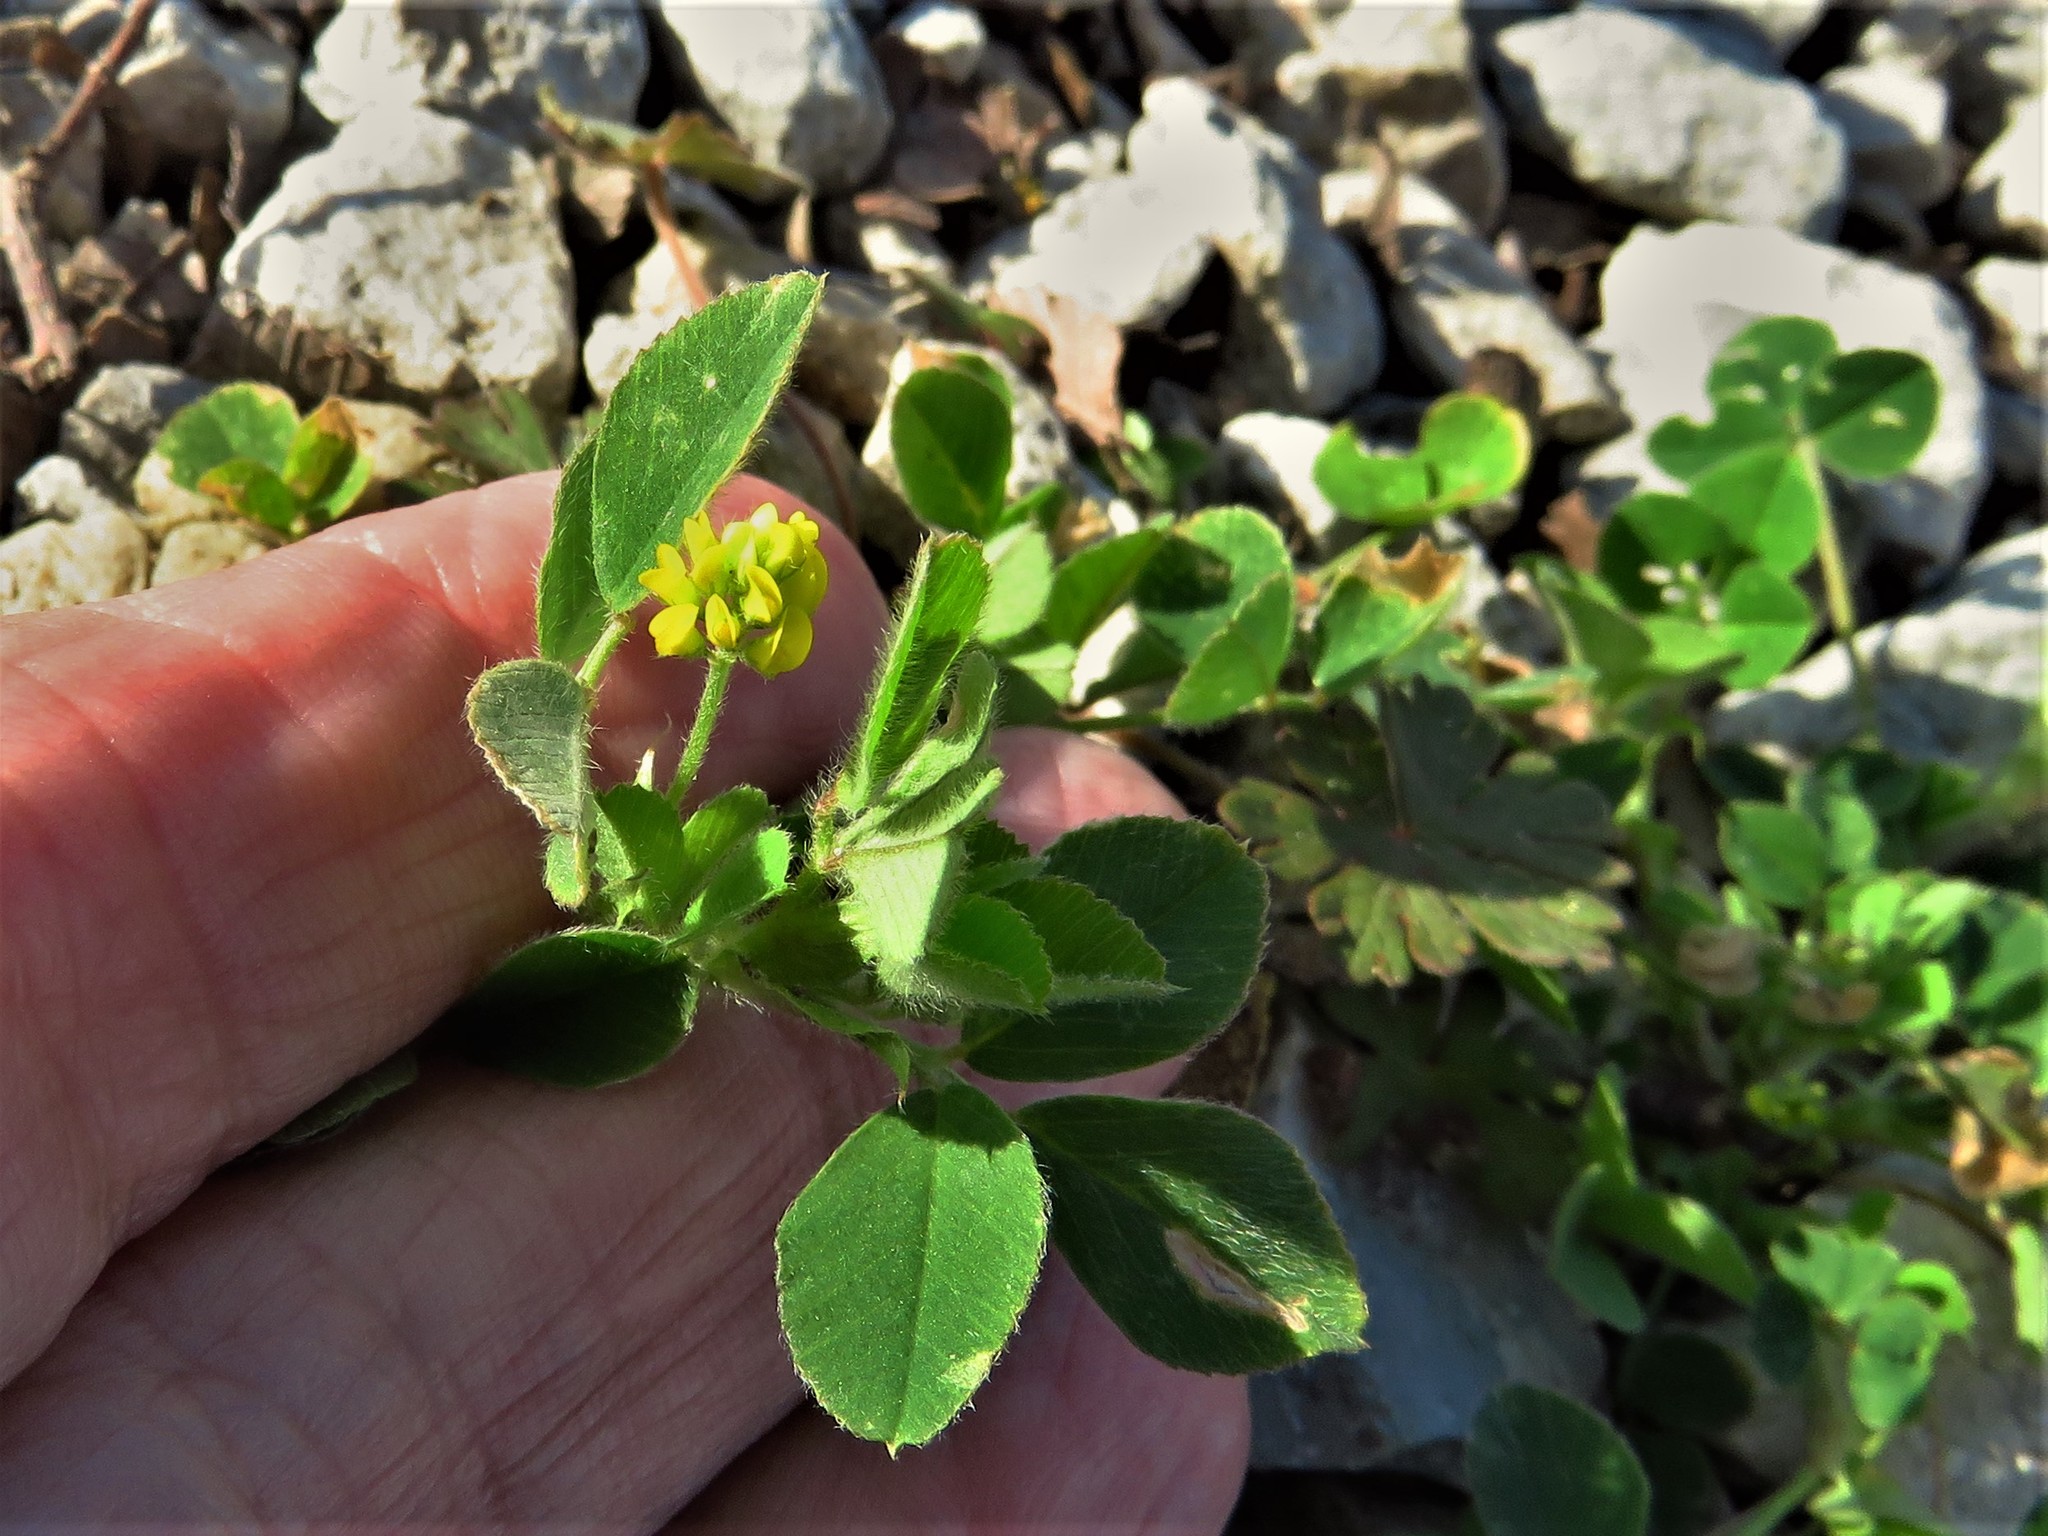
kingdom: Plantae
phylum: Tracheophyta
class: Magnoliopsida
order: Fabales
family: Fabaceae
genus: Medicago
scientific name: Medicago lupulina
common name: Black medick
